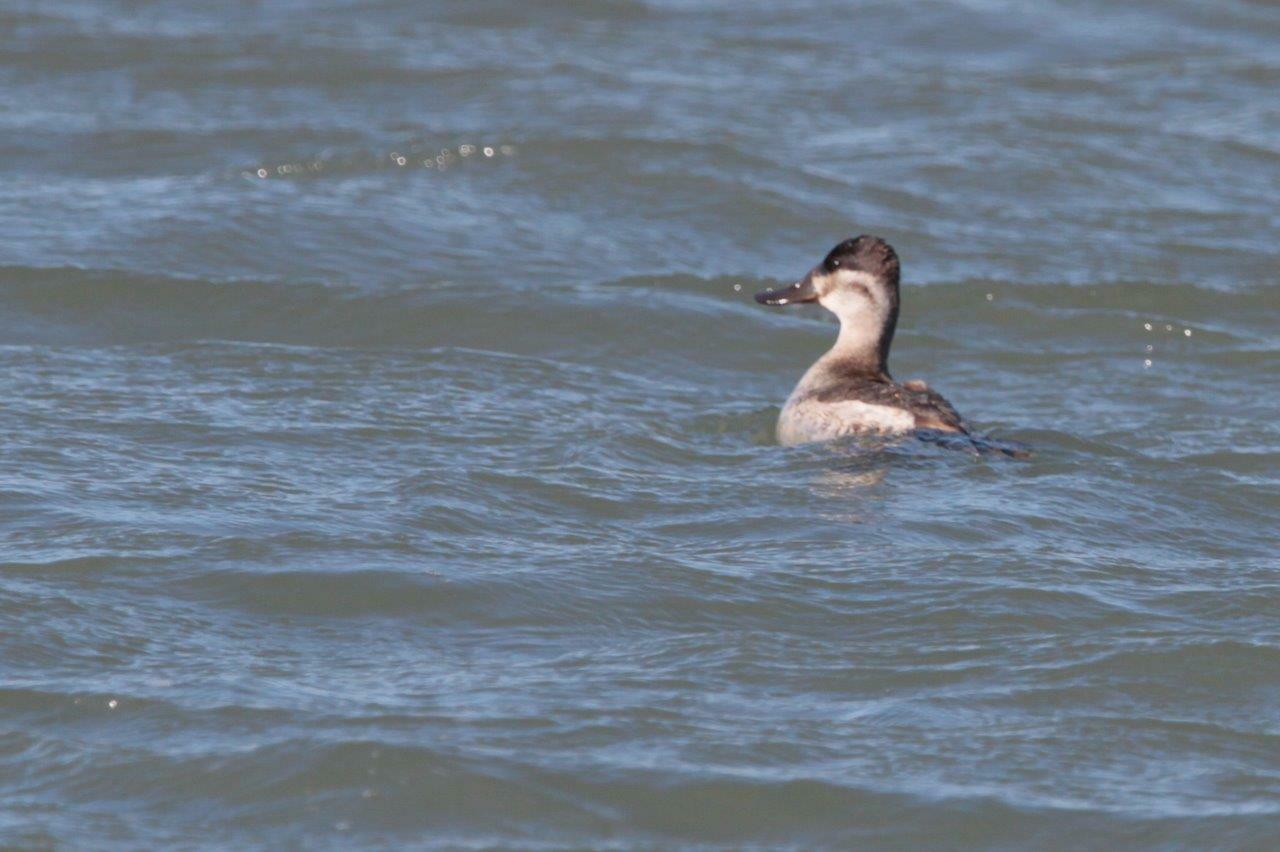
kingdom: Animalia
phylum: Chordata
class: Aves
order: Anseriformes
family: Anatidae
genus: Oxyura
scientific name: Oxyura jamaicensis
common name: Ruddy duck
